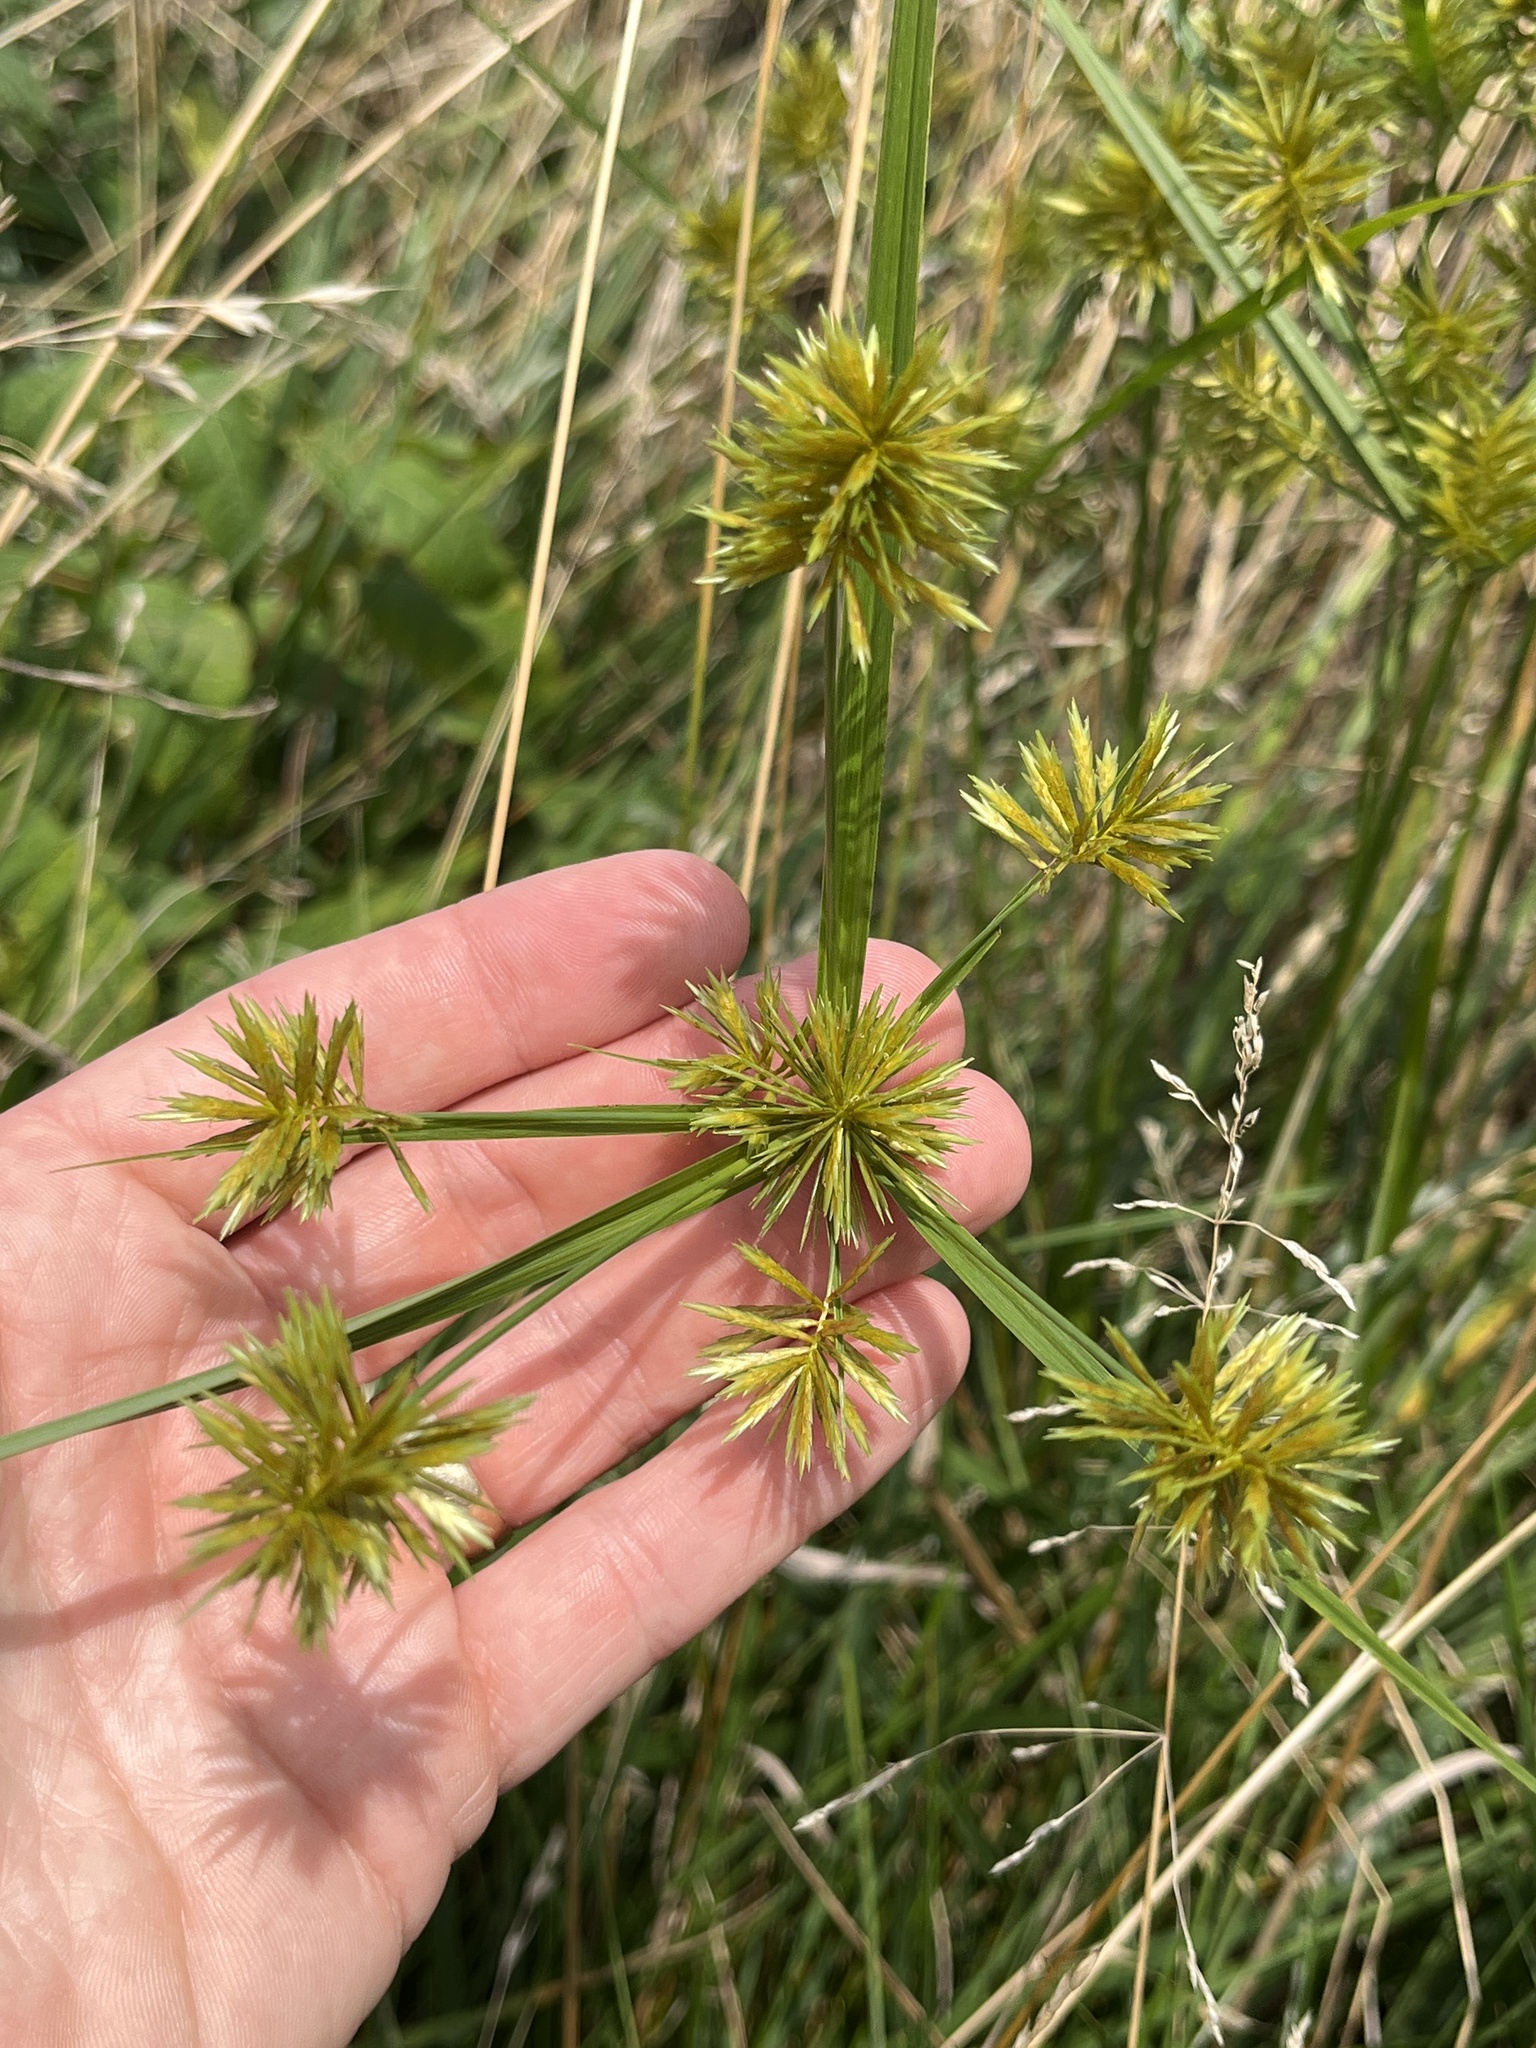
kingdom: Plantae
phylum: Tracheophyta
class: Liliopsida
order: Poales
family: Cyperaceae
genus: Cyperus
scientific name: Cyperus strigosus
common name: False nutsedge
